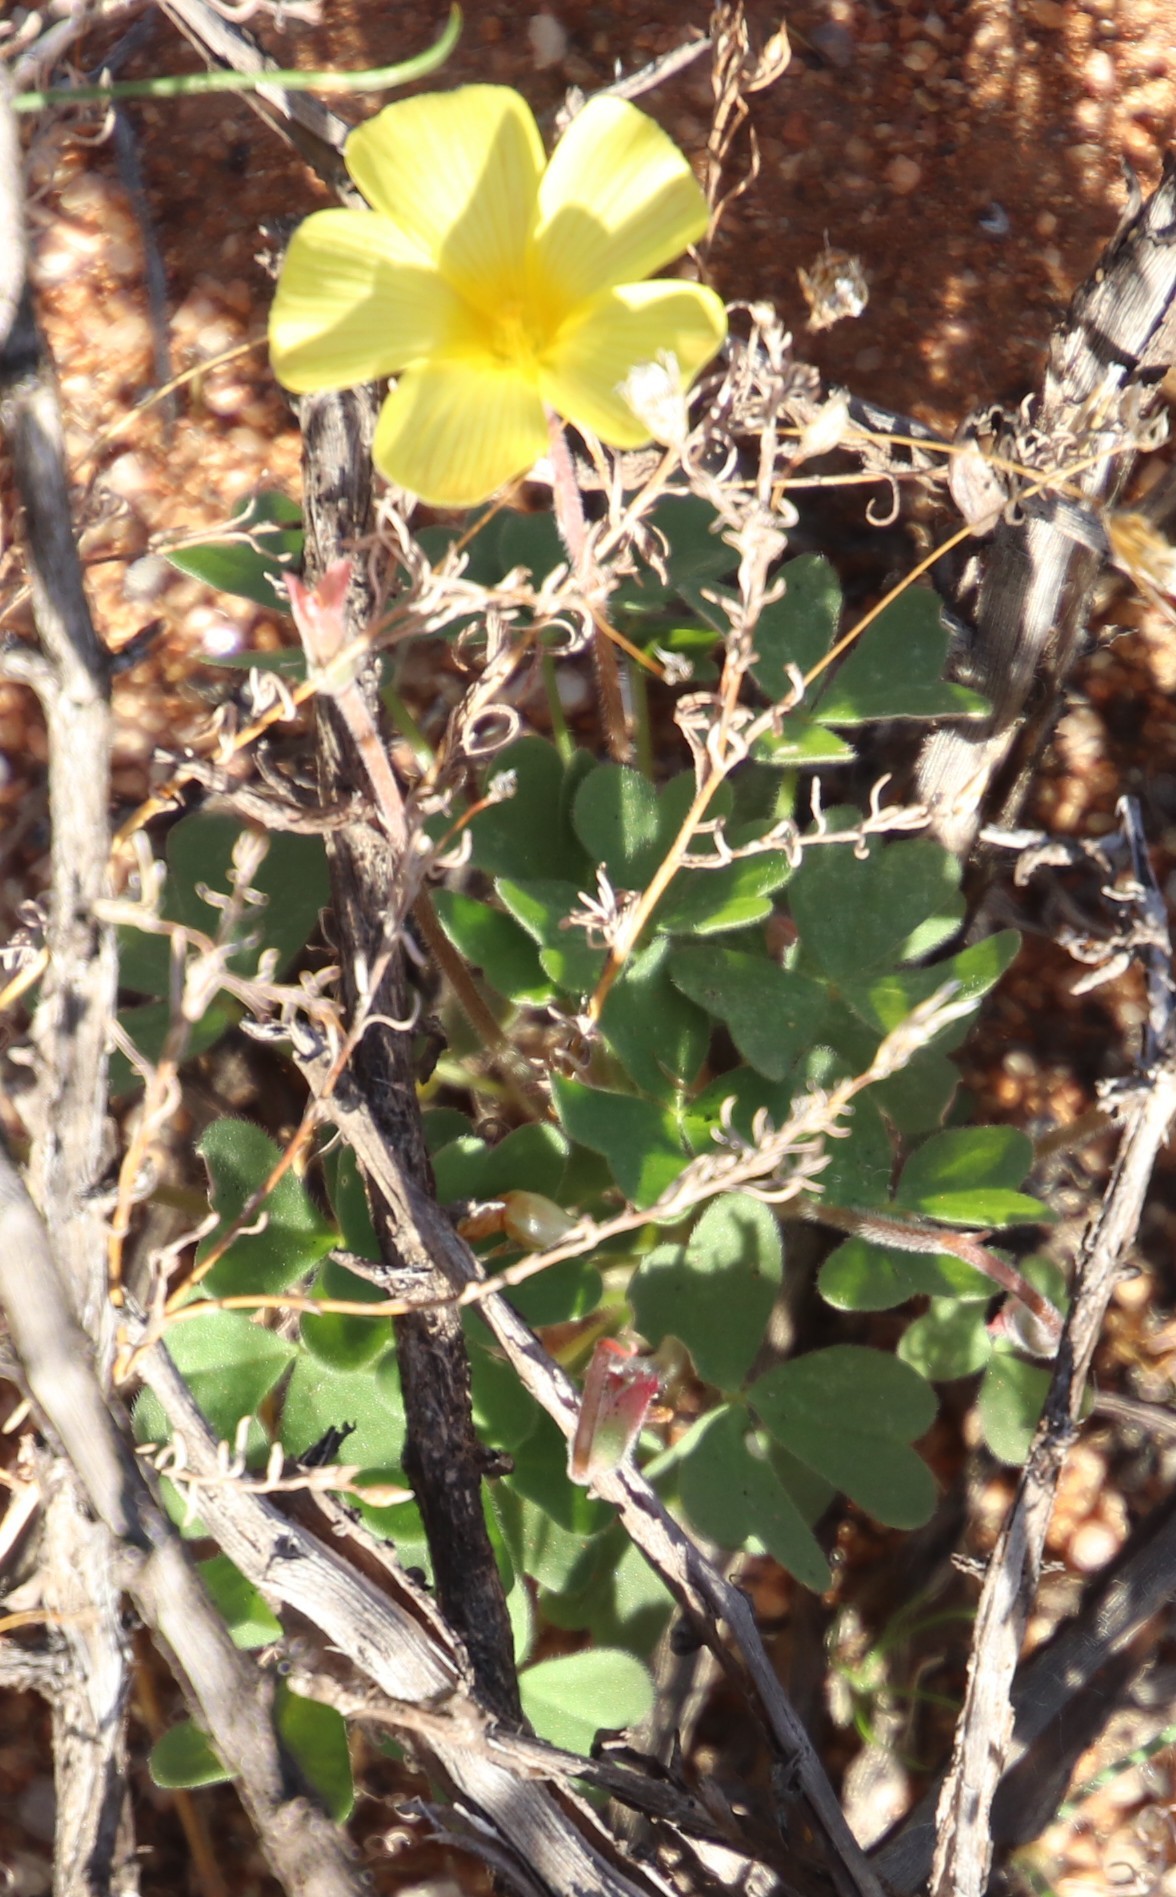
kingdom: Plantae
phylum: Tracheophyta
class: Magnoliopsida
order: Oxalidales
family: Oxalidaceae
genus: Oxalis
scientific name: Oxalis obtusa
